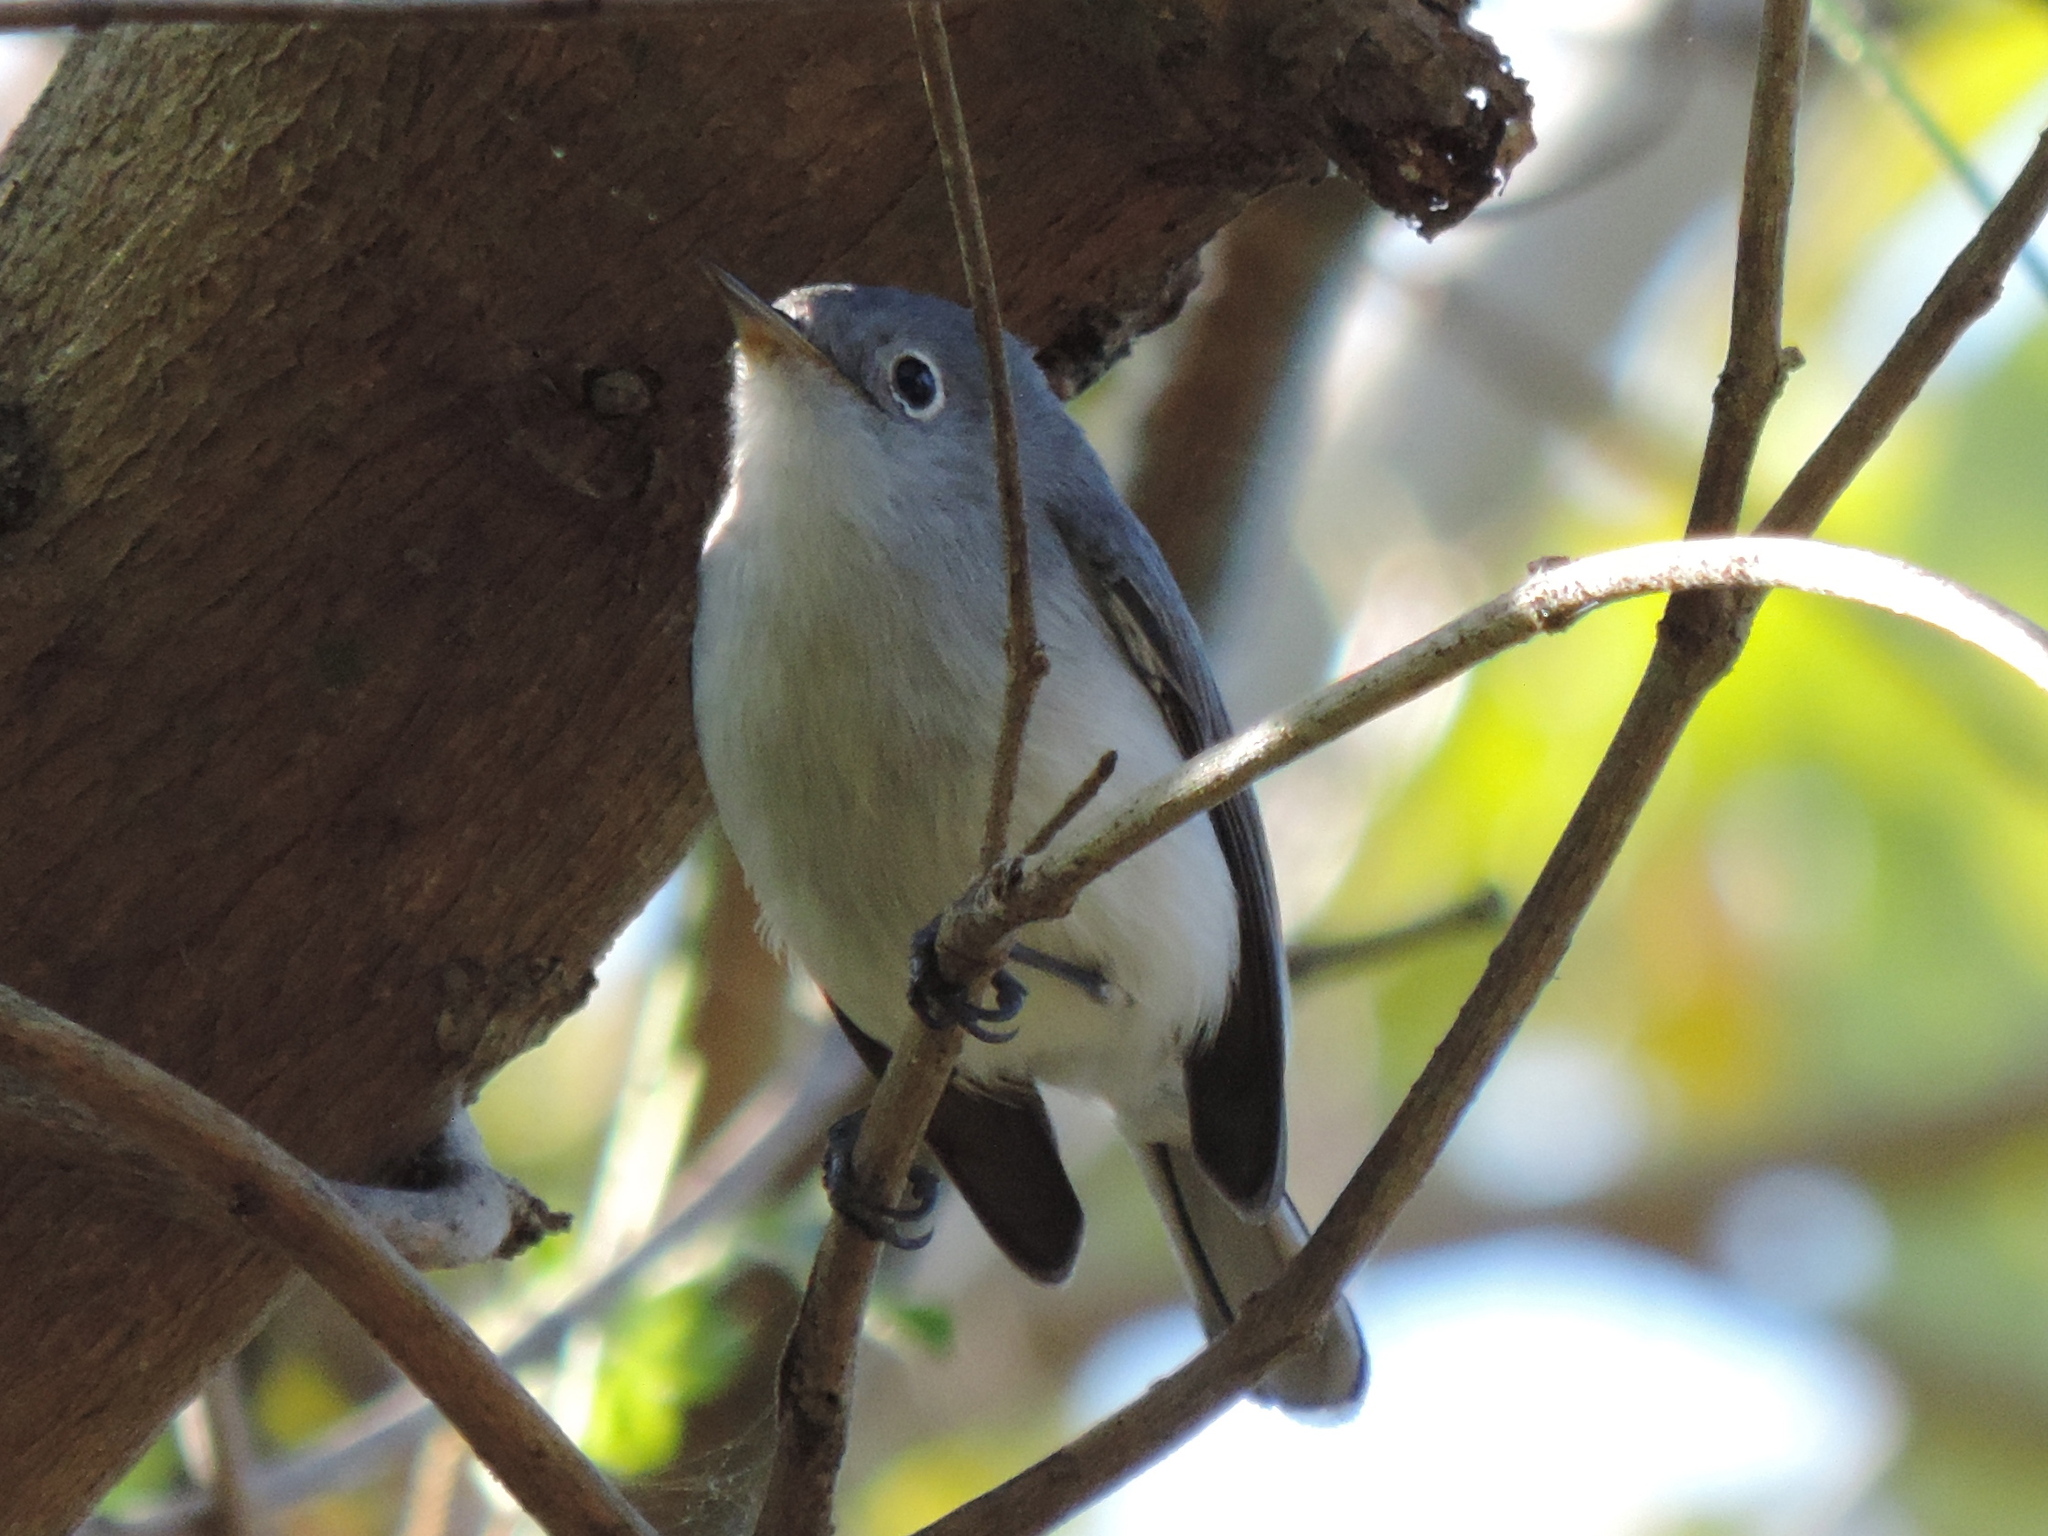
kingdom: Animalia
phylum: Chordata
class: Aves
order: Passeriformes
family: Polioptilidae
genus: Polioptila
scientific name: Polioptila caerulea
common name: Blue-gray gnatcatcher
